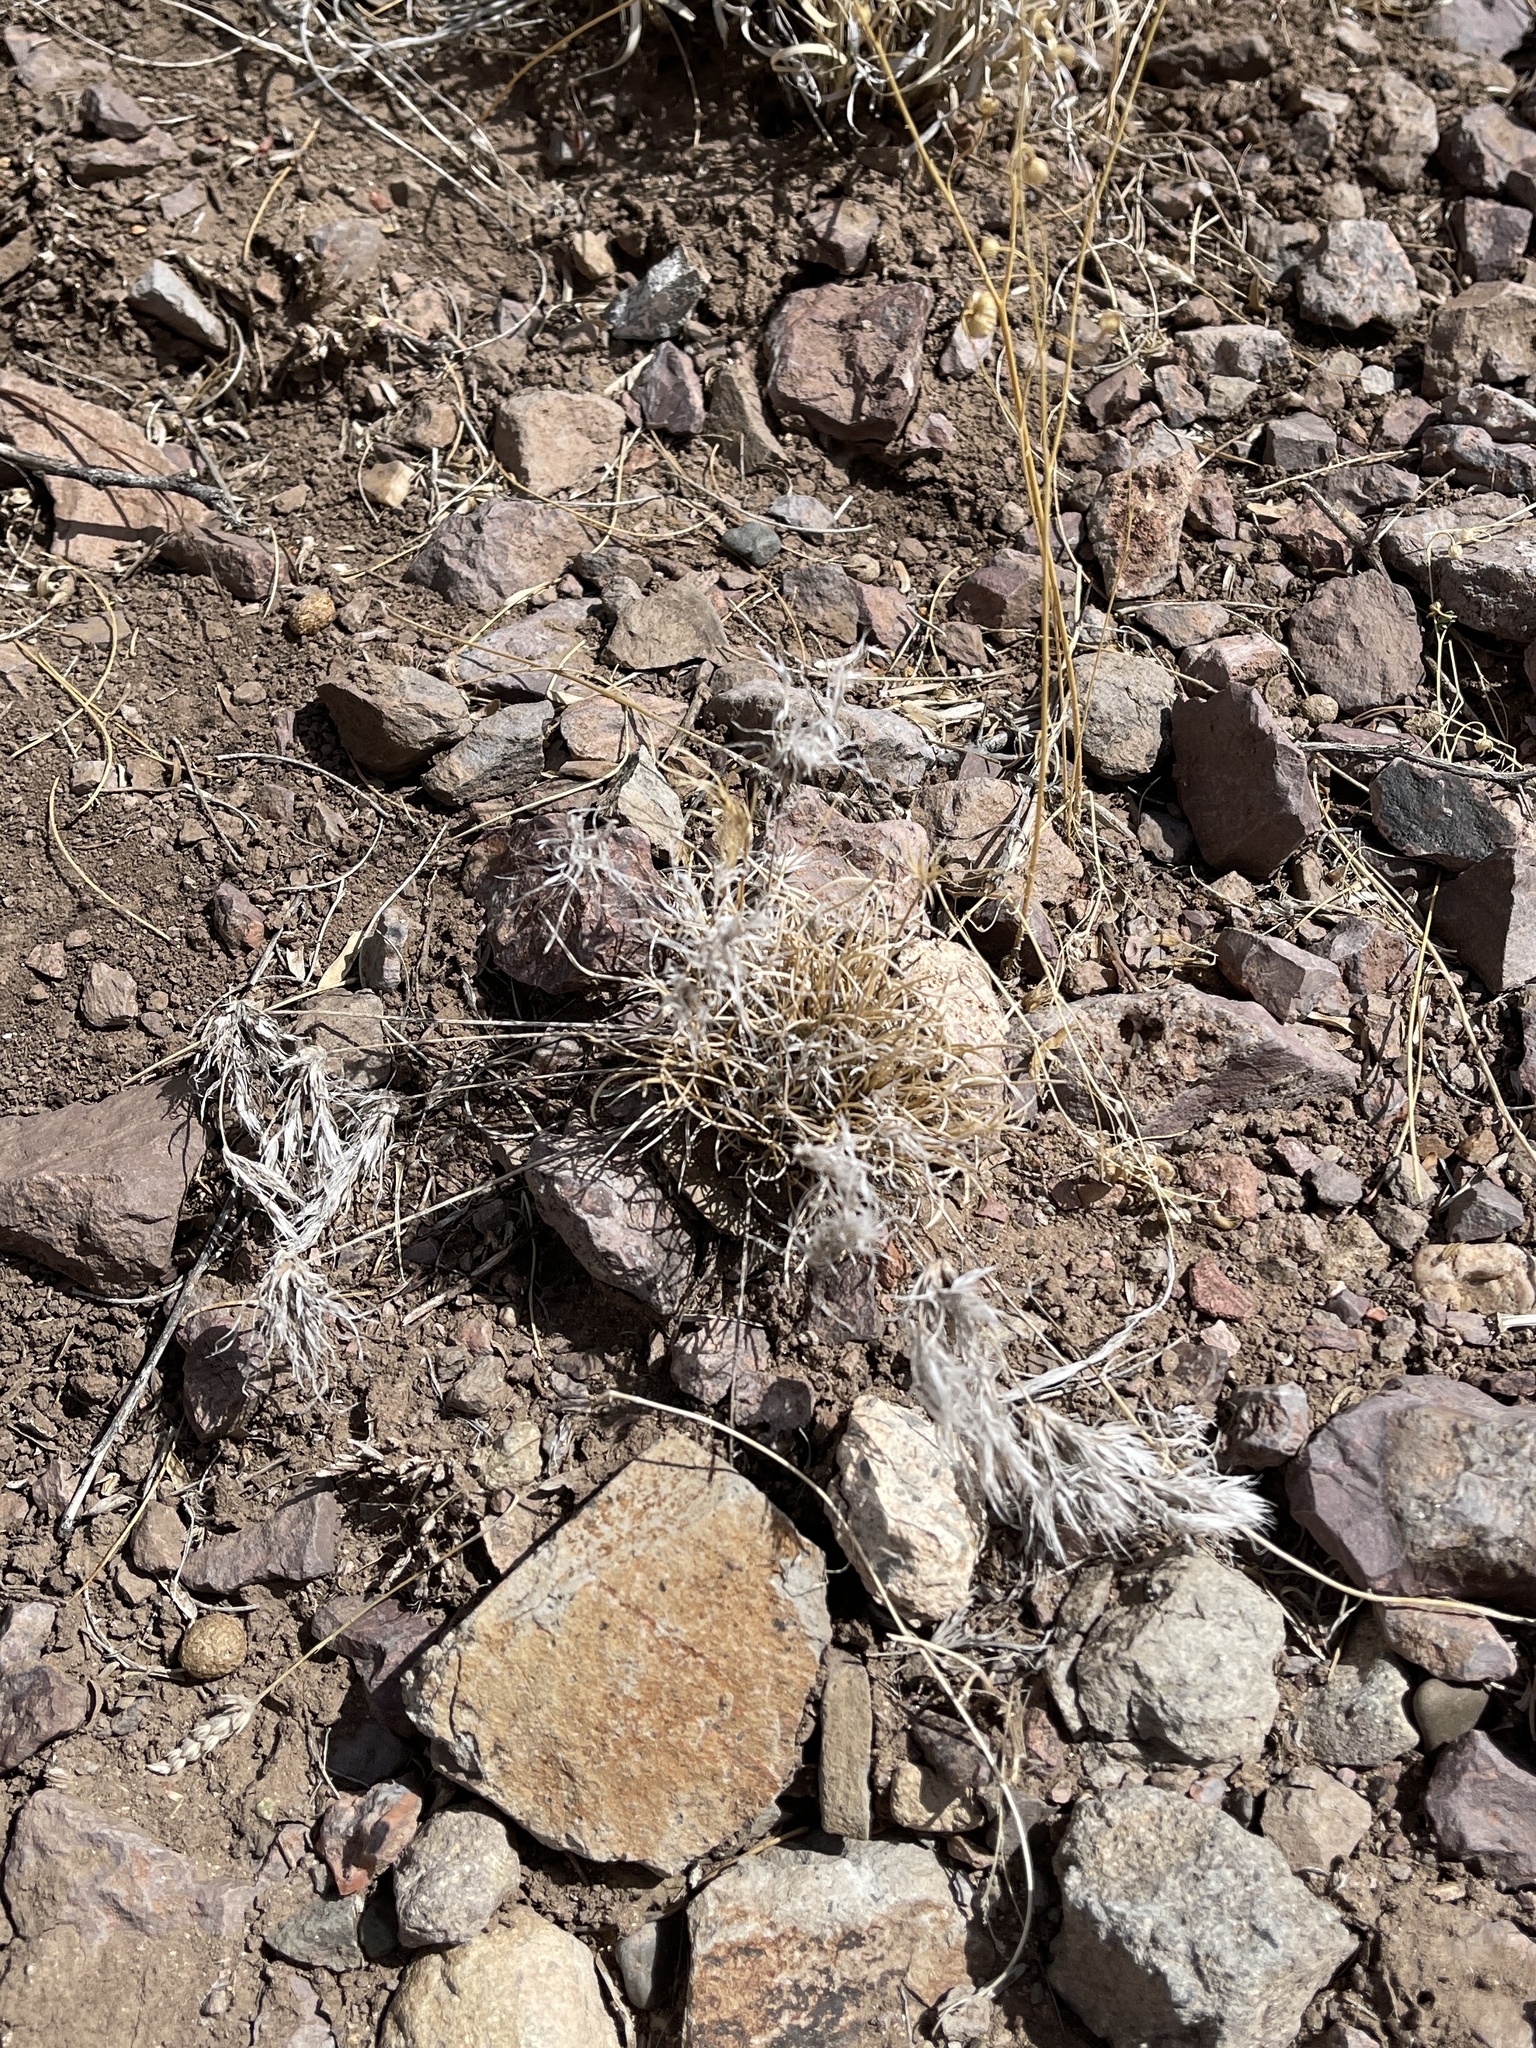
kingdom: Plantae
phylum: Tracheophyta
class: Liliopsida
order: Poales
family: Poaceae
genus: Dasyochloa
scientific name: Dasyochloa pulchella
